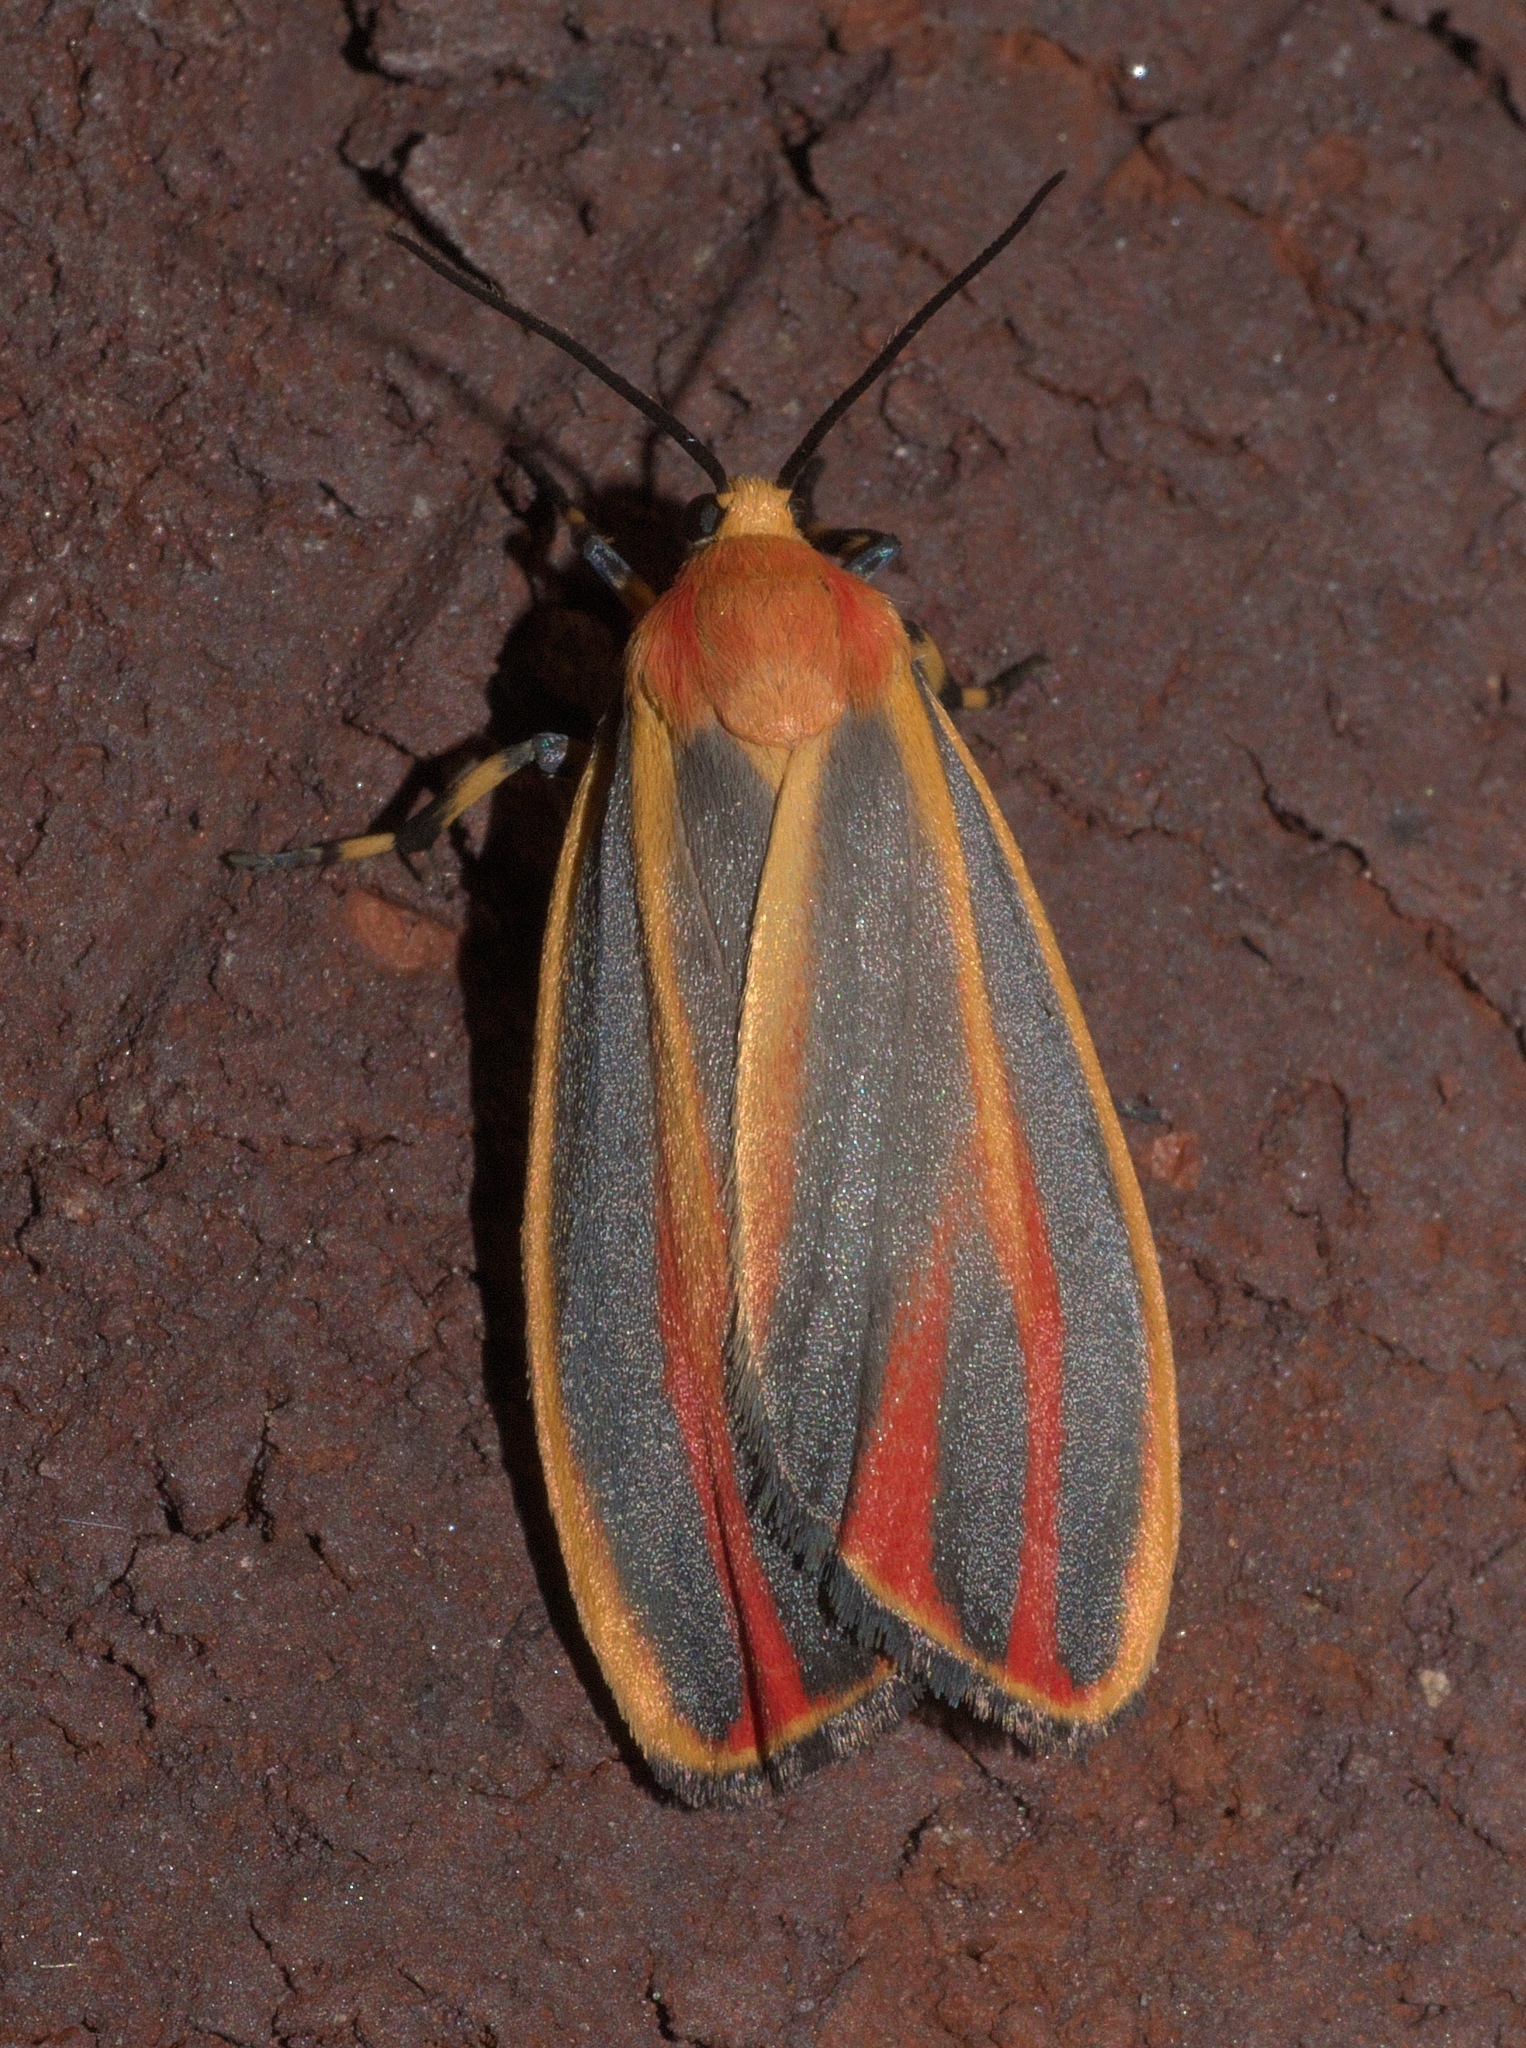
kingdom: Animalia
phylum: Arthropoda
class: Insecta
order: Lepidoptera
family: Erebidae
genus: Hypoprepia
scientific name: Hypoprepia fucosa
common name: Painted lichen moth
